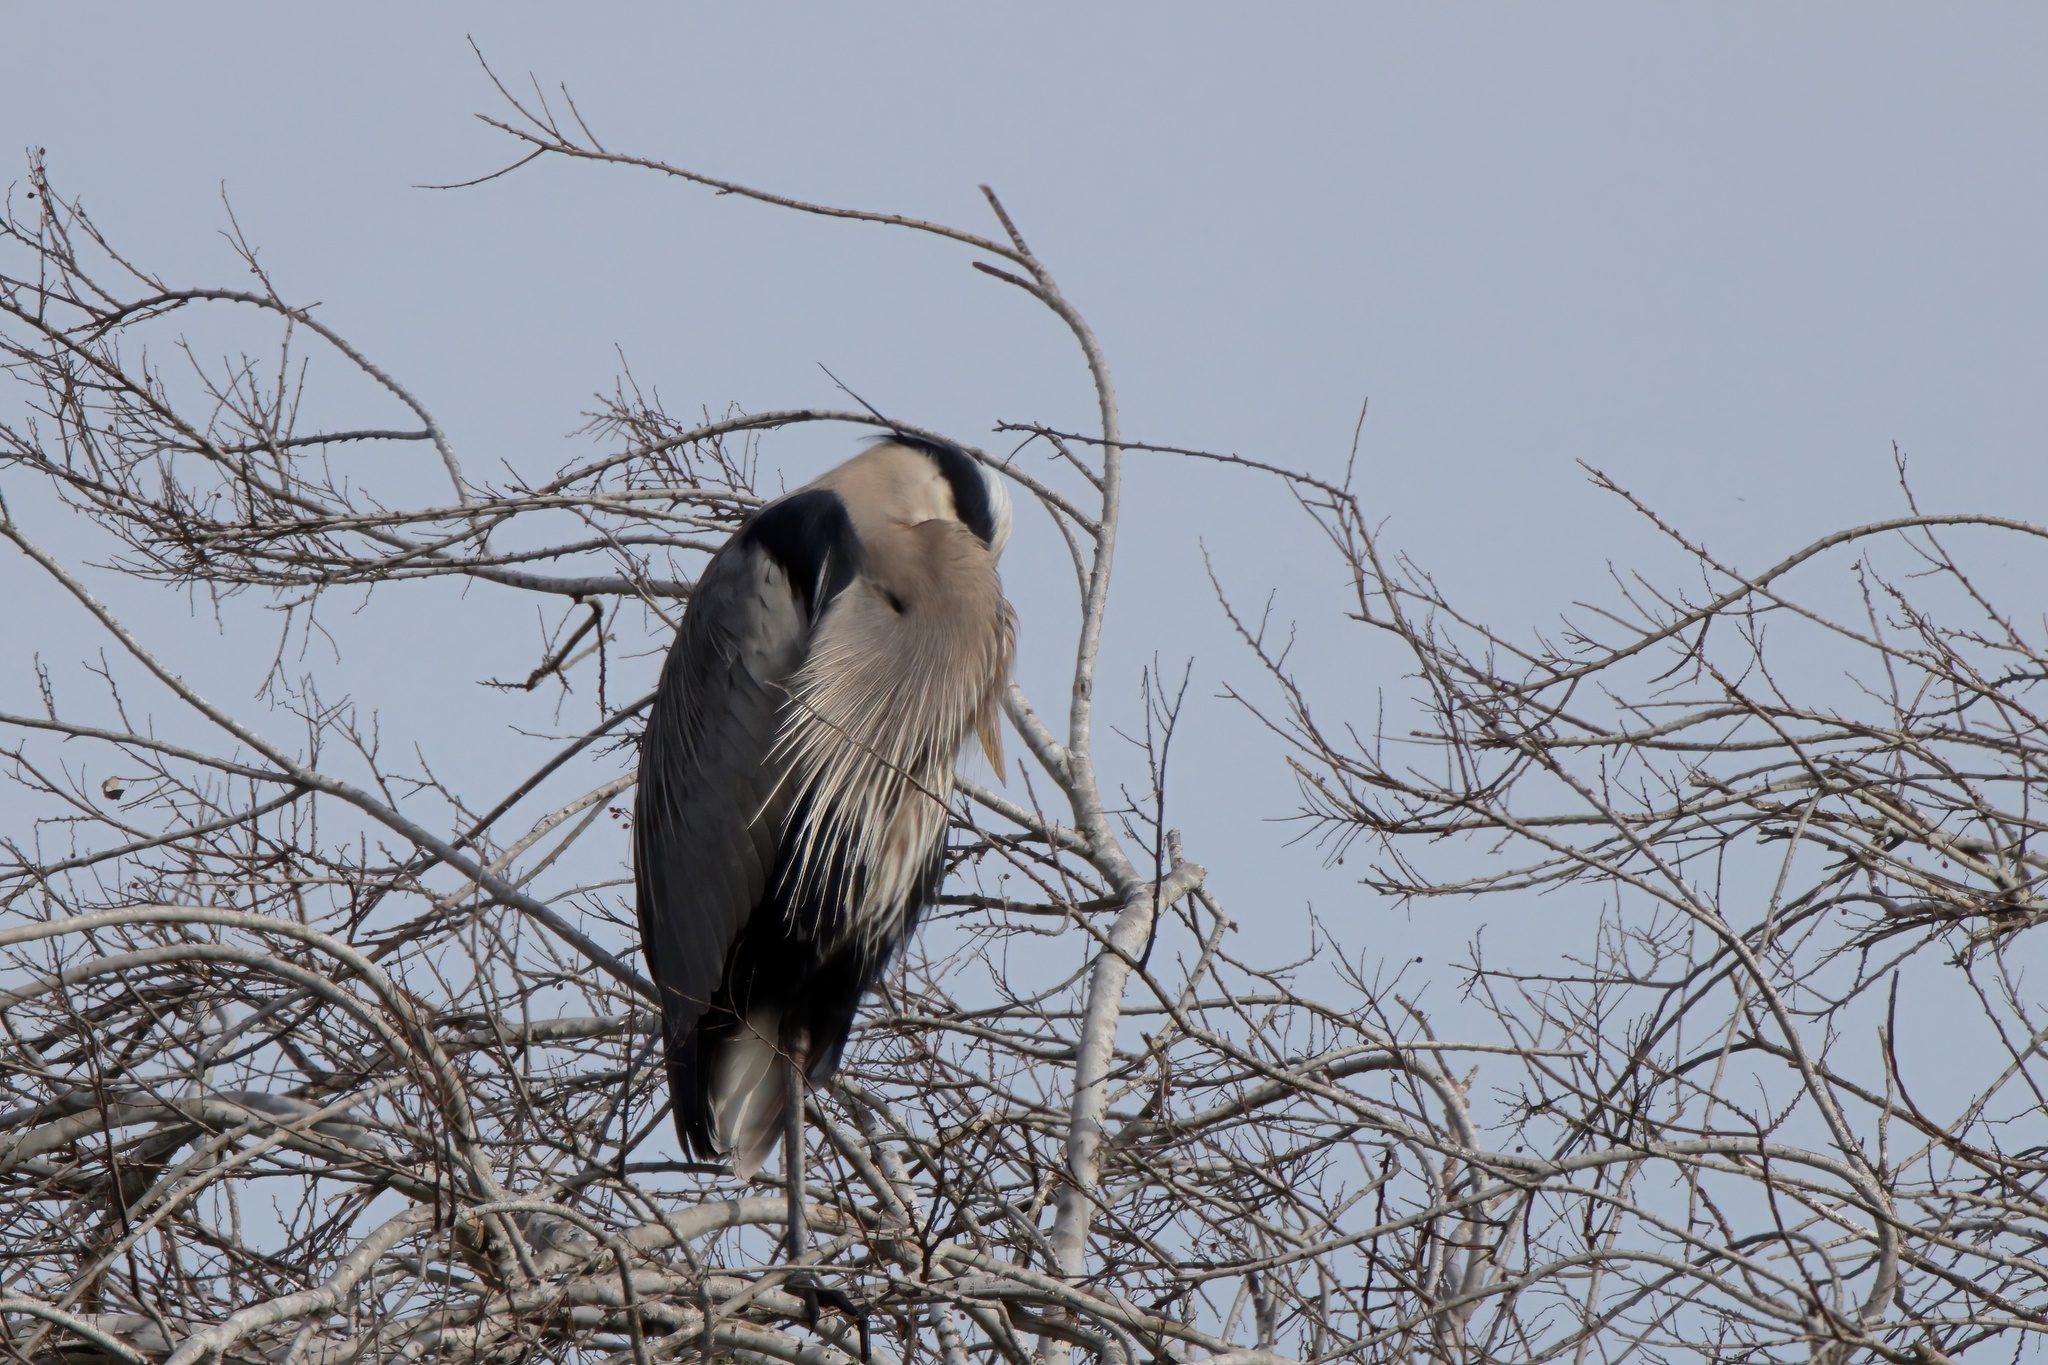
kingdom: Animalia
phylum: Chordata
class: Aves
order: Pelecaniformes
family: Ardeidae
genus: Ardea
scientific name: Ardea herodias
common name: Great blue heron
